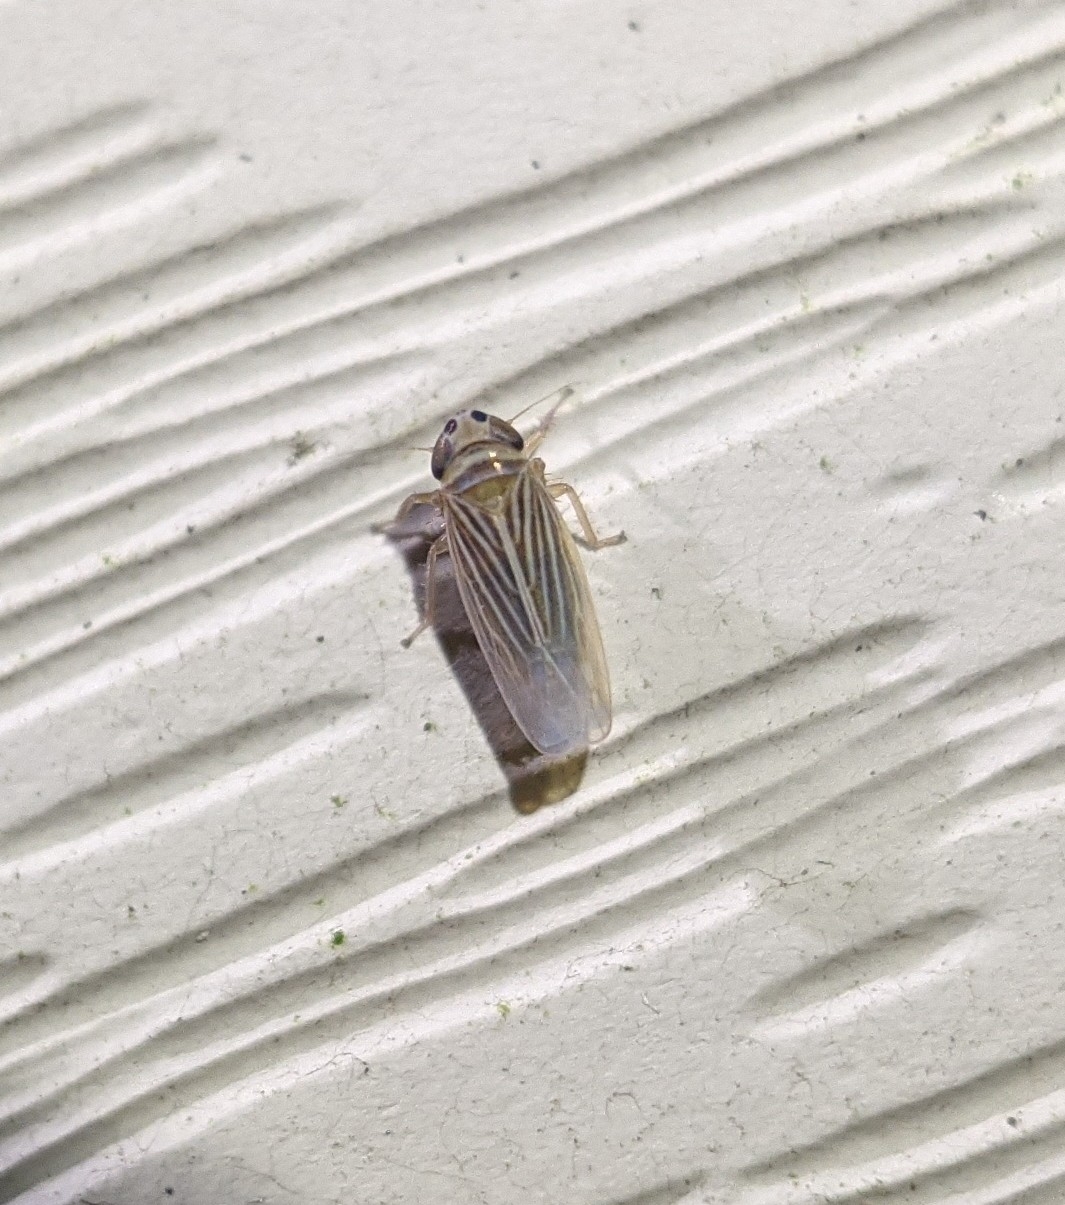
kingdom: Animalia
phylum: Arthropoda
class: Insecta
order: Hemiptera
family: Cicadellidae
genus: Graminella
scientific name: Graminella villicus
